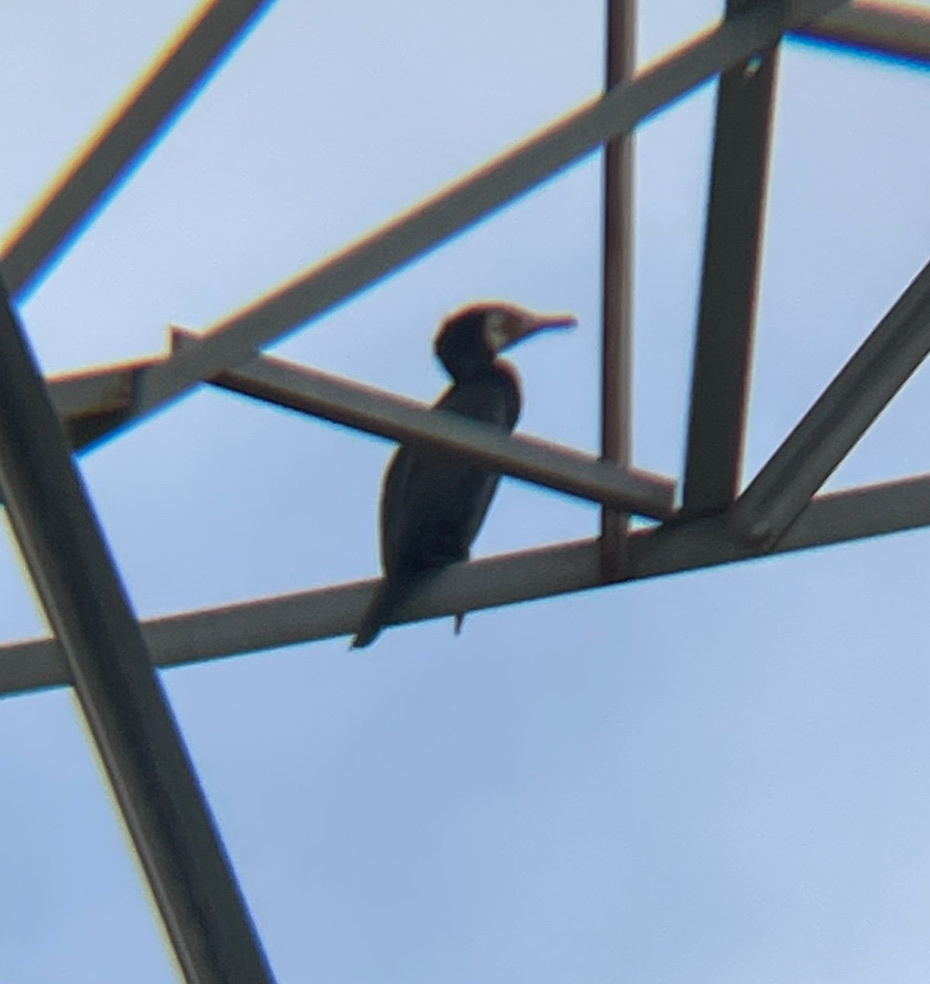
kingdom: Animalia
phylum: Chordata
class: Aves
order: Suliformes
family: Phalacrocoracidae
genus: Phalacrocorax
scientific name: Phalacrocorax carbo
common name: Great cormorant
